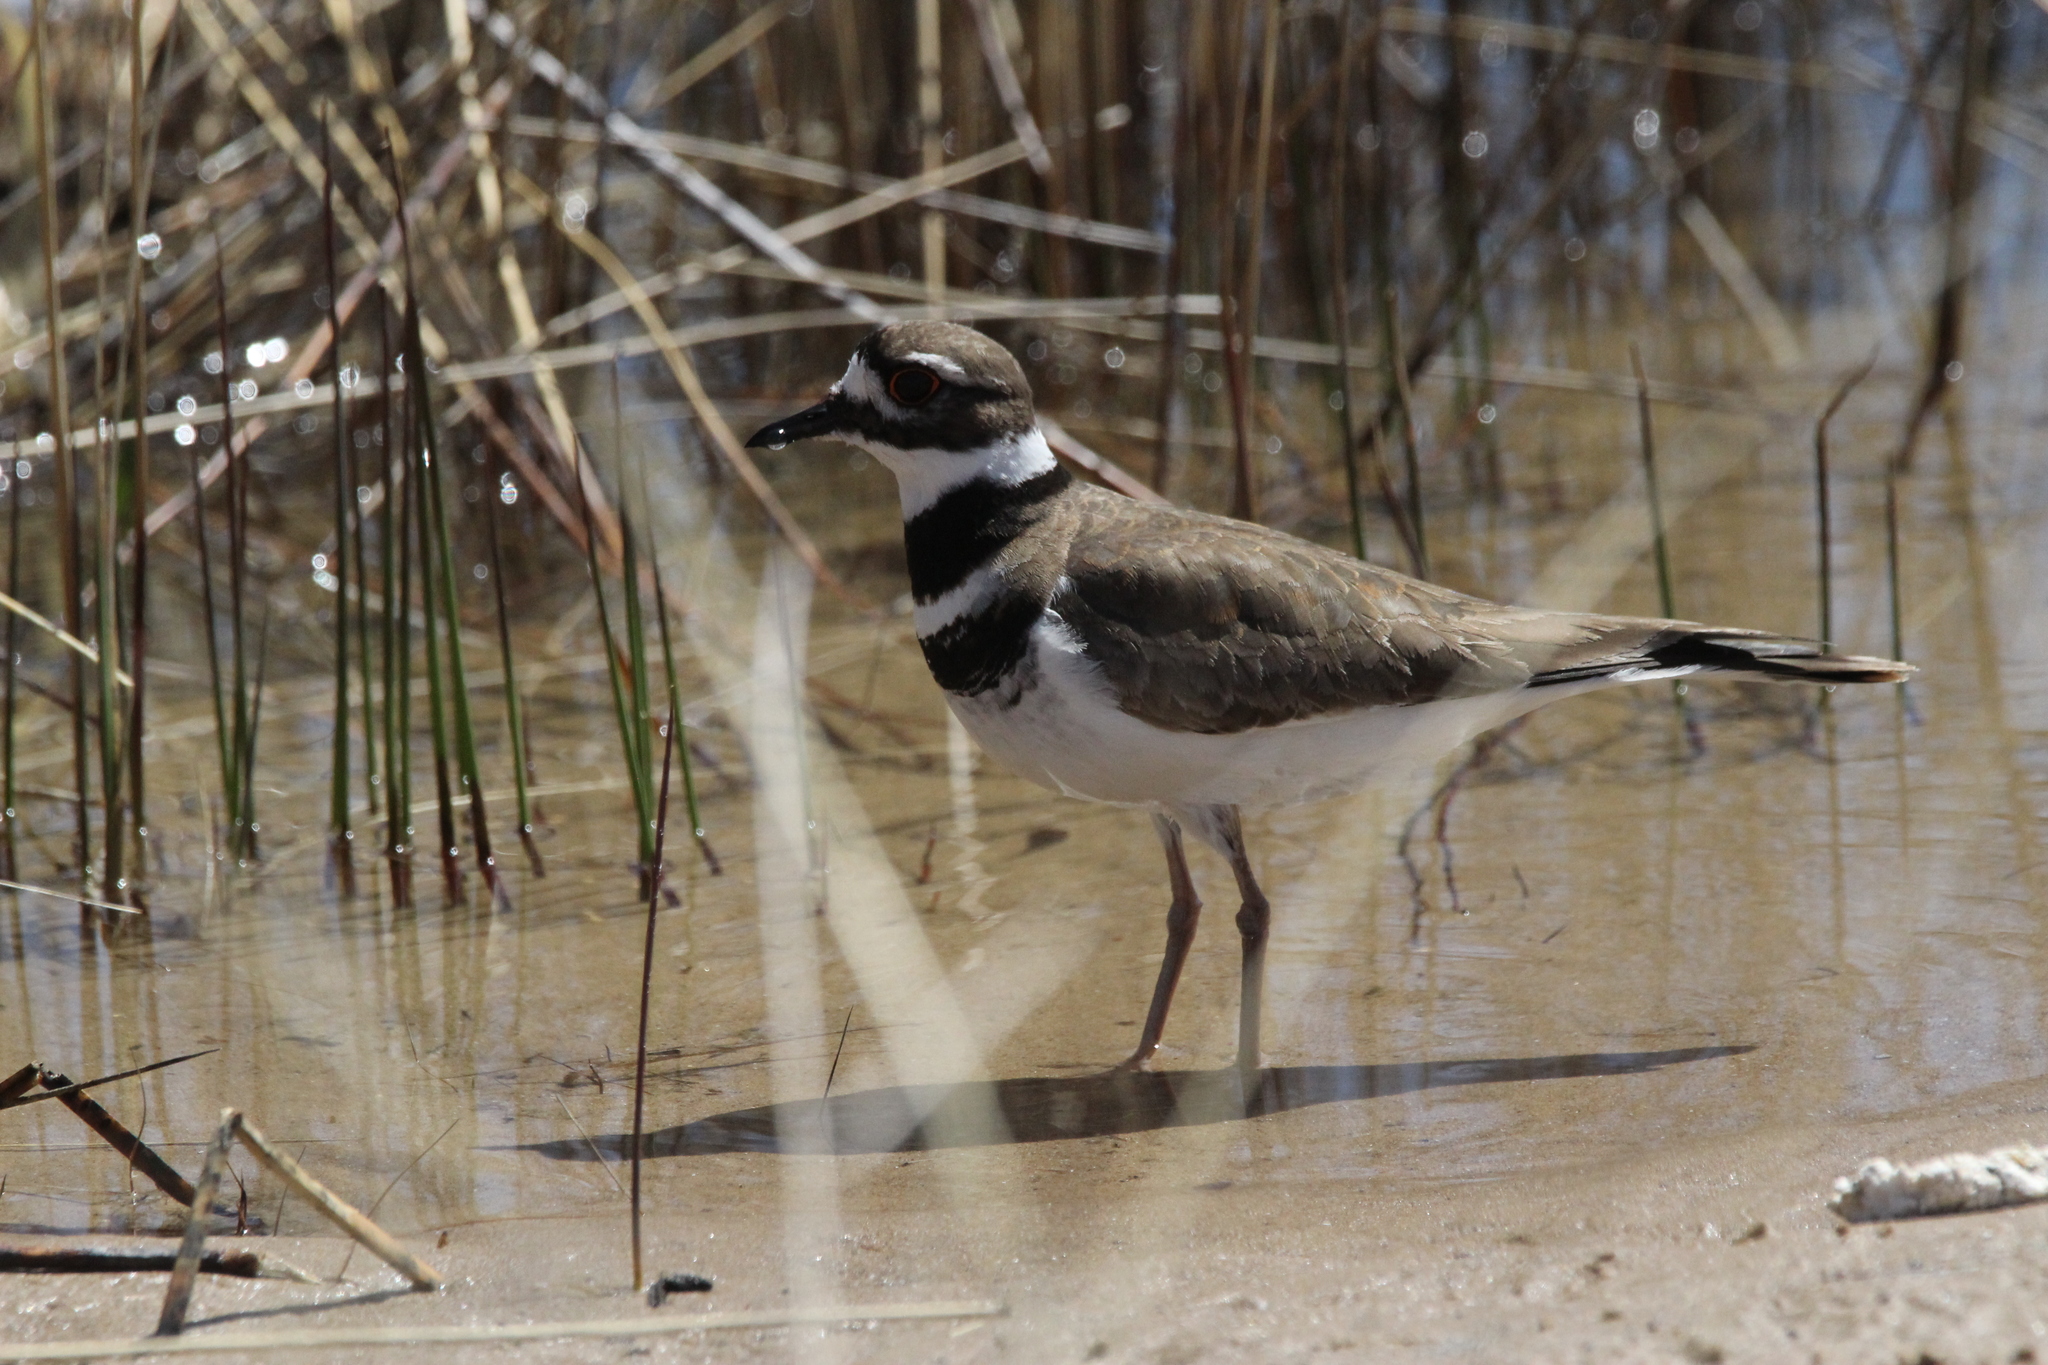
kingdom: Animalia
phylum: Chordata
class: Aves
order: Charadriiformes
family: Charadriidae
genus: Charadrius
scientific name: Charadrius vociferus
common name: Killdeer
